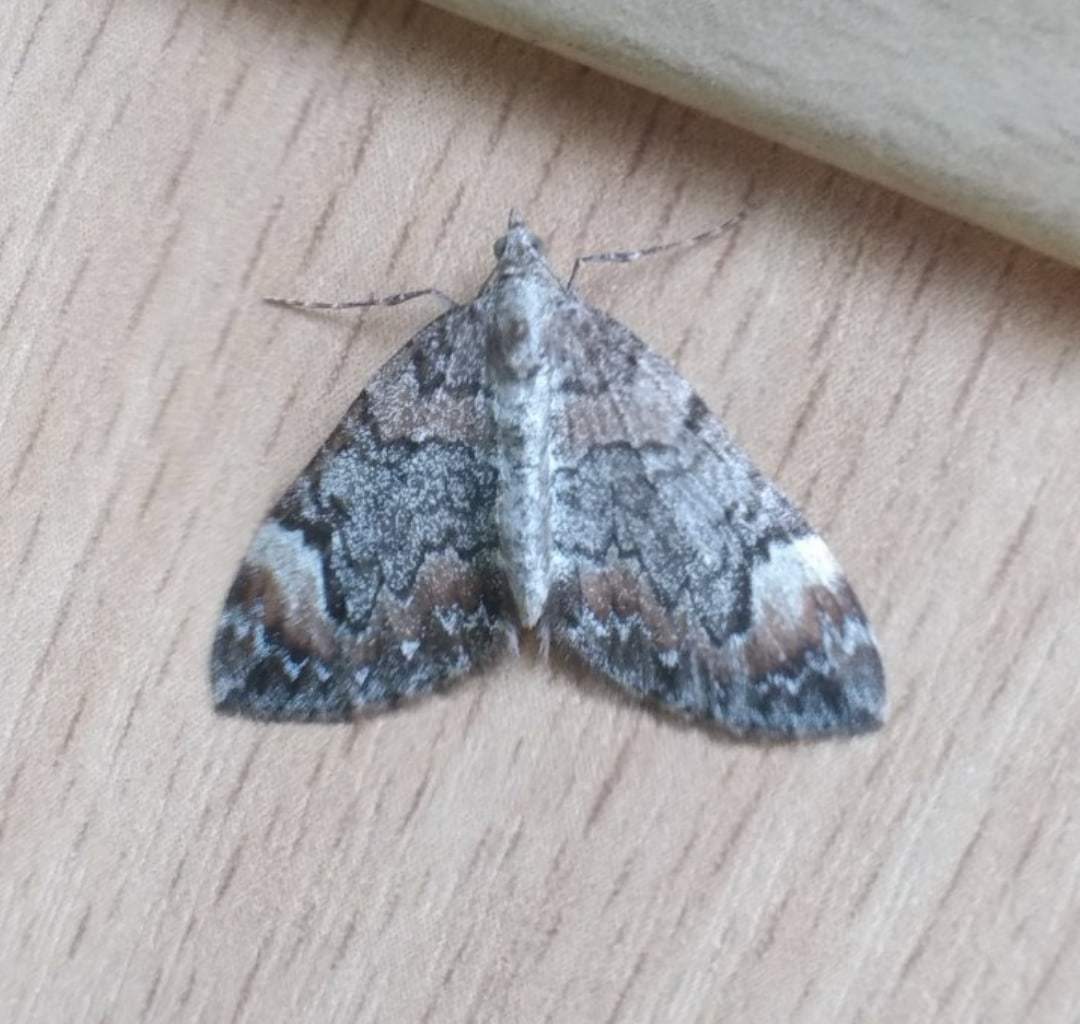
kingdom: Animalia
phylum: Arthropoda
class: Insecta
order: Lepidoptera
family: Geometridae
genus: Dysstroma
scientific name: Dysstroma citrata
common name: Dark marbled carpet
